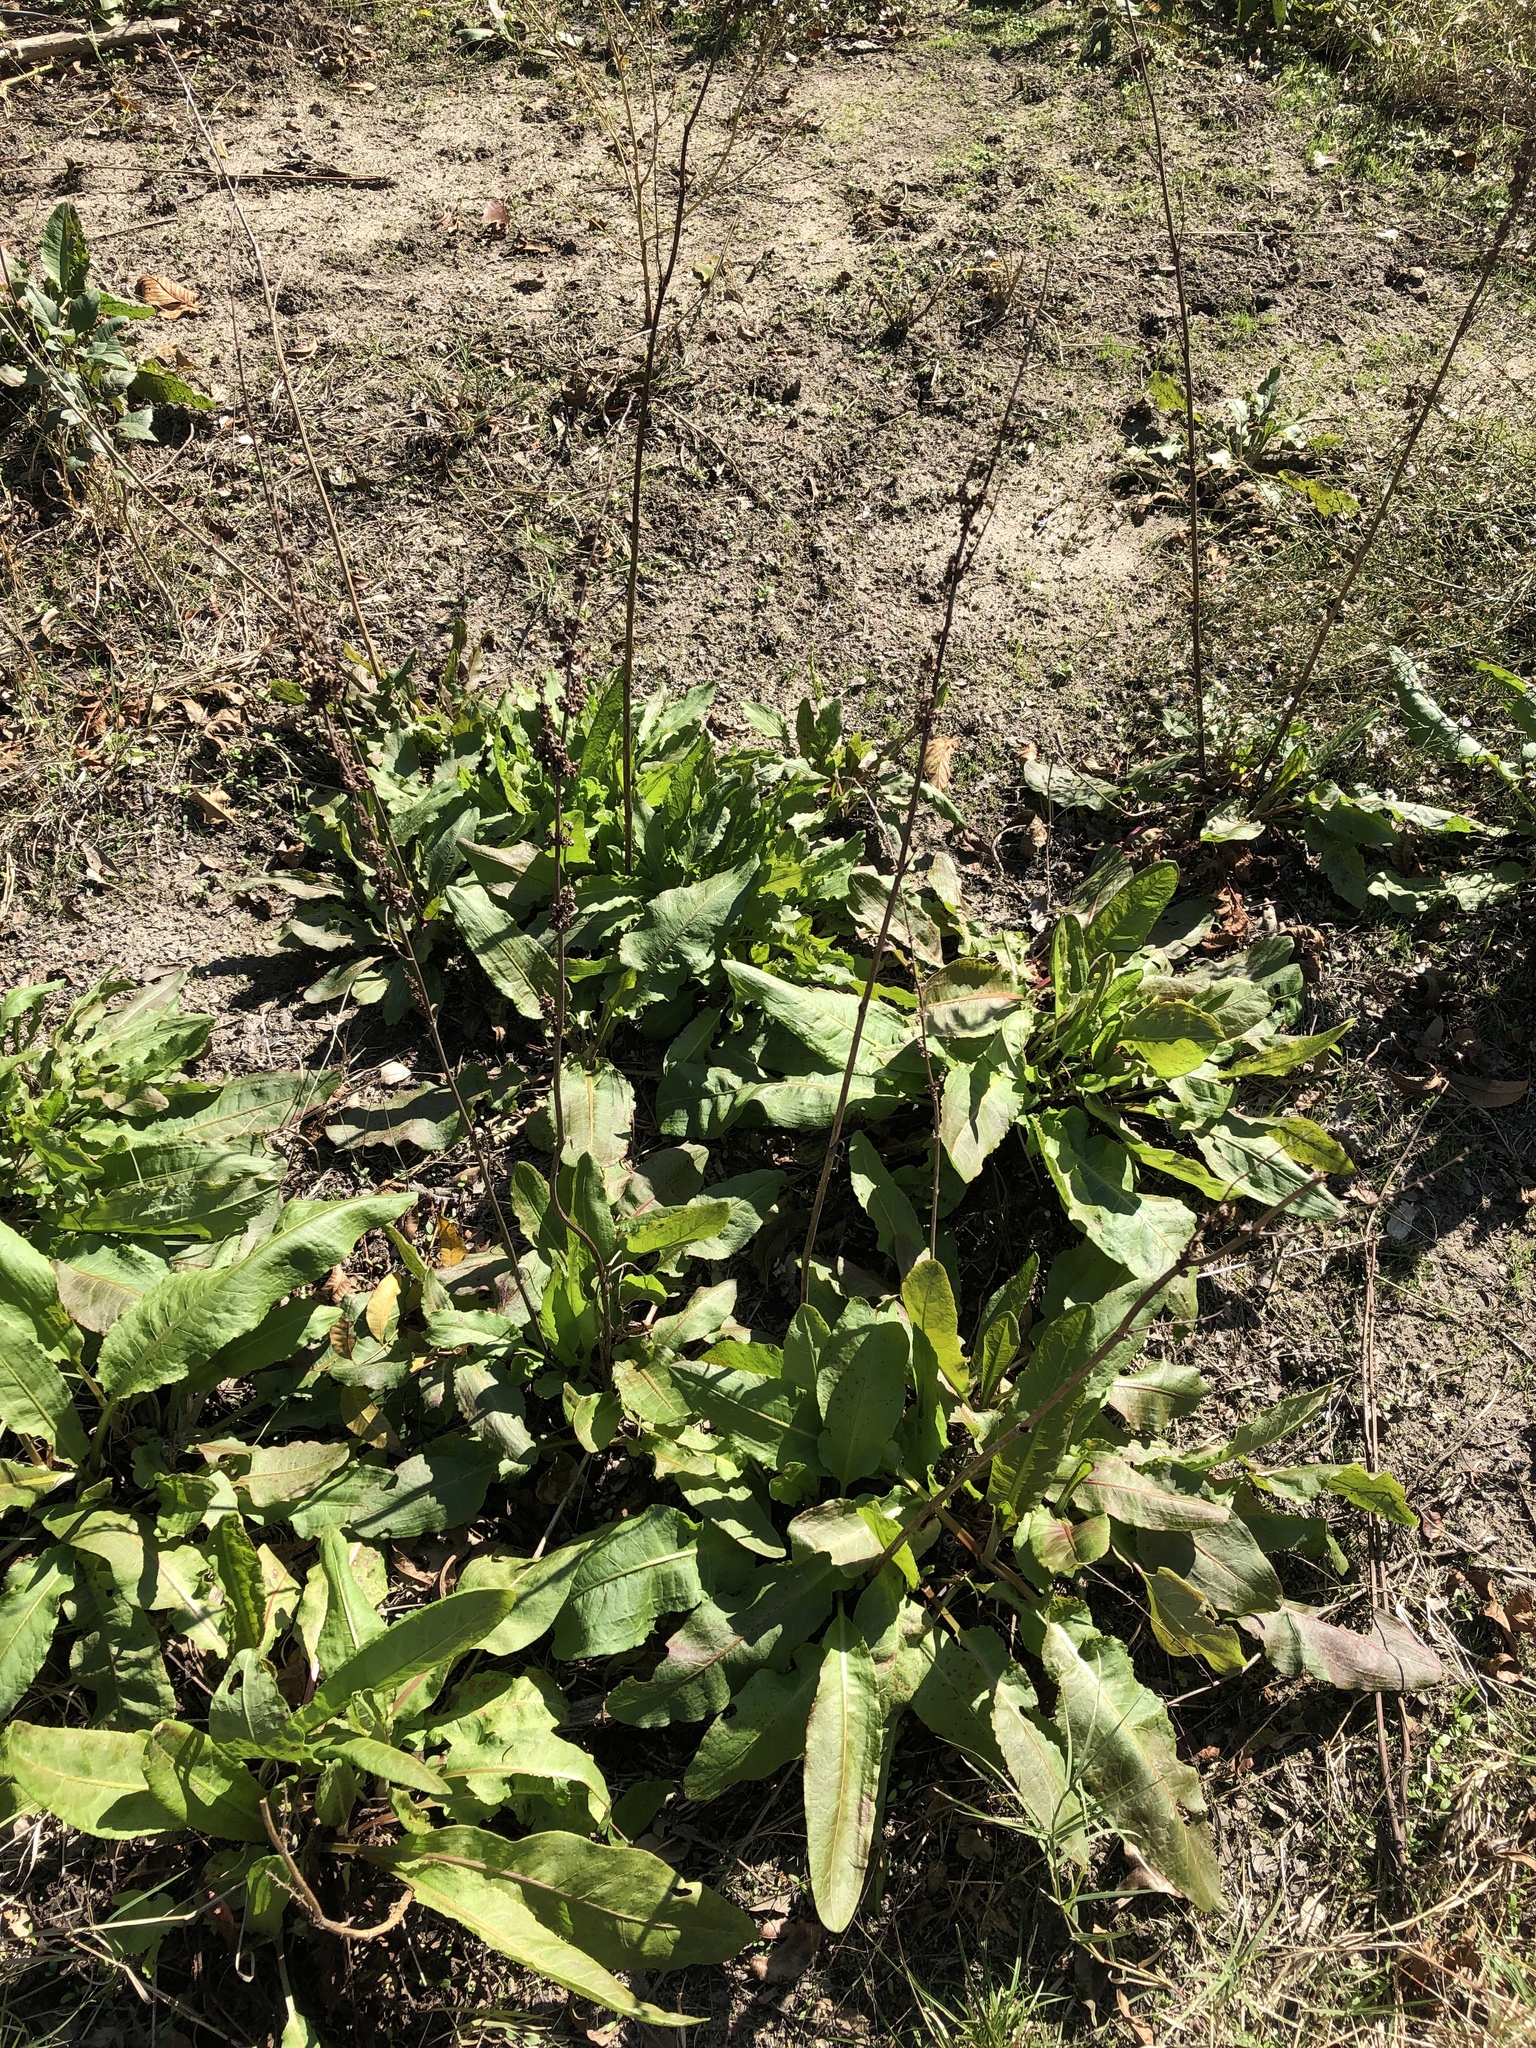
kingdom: Plantae
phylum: Tracheophyta
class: Magnoliopsida
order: Caryophyllales
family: Polygonaceae
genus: Rumex
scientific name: Rumex crispus
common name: Curled dock
